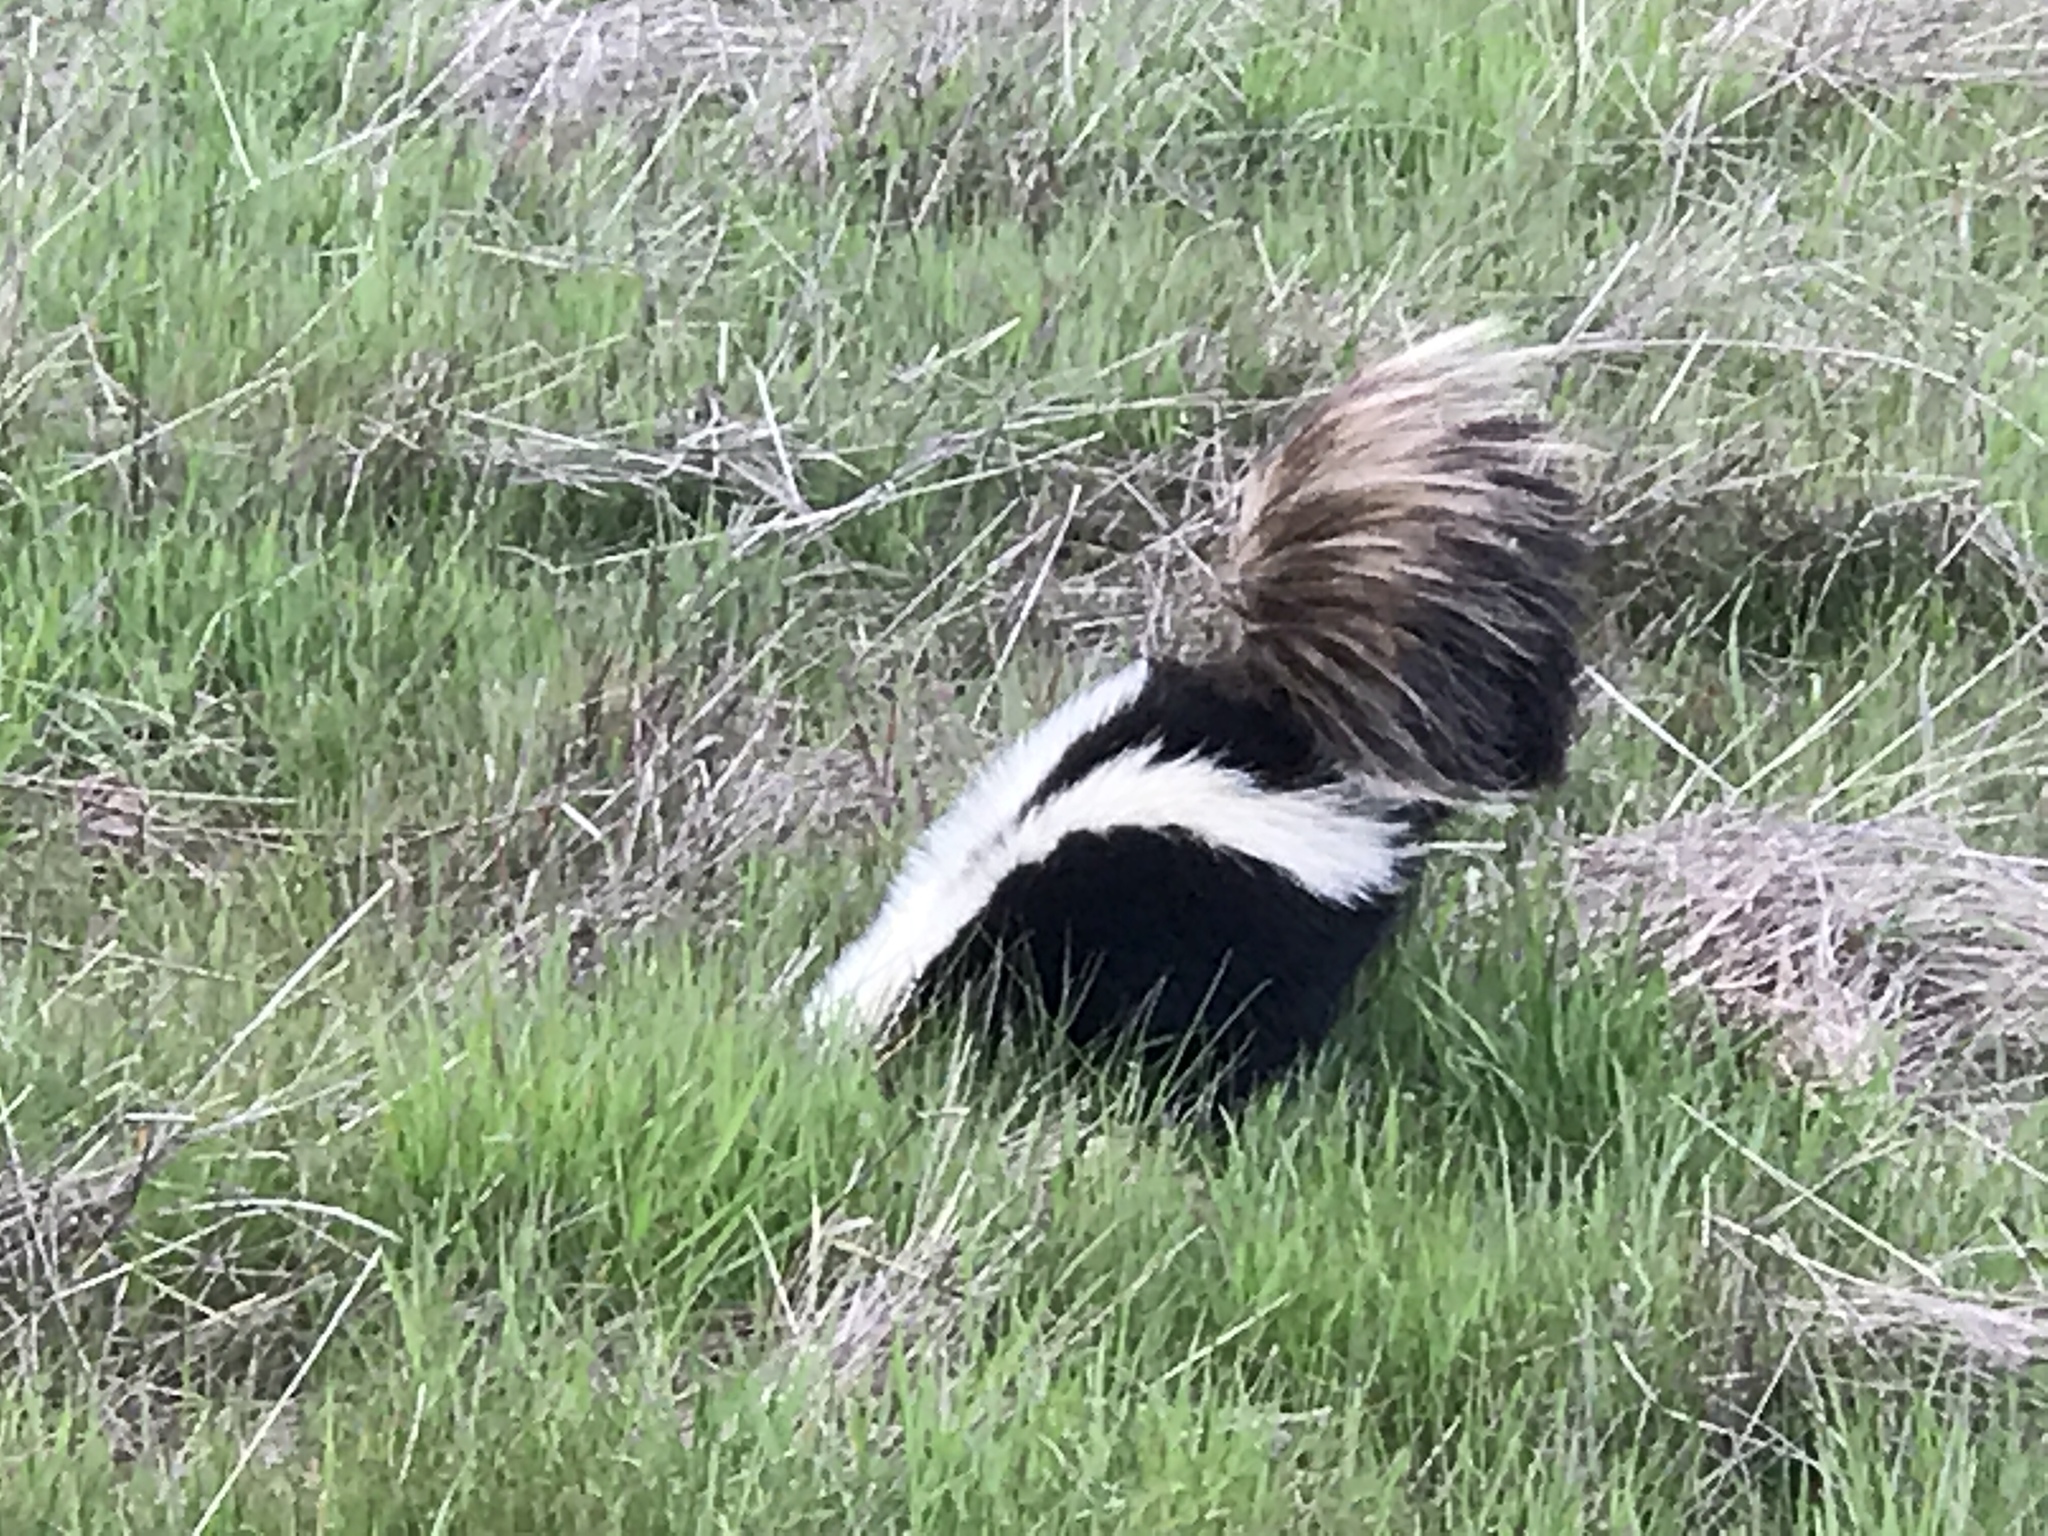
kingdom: Animalia
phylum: Chordata
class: Mammalia
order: Carnivora
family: Mephitidae
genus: Mephitis
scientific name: Mephitis mephitis
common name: Striped skunk
